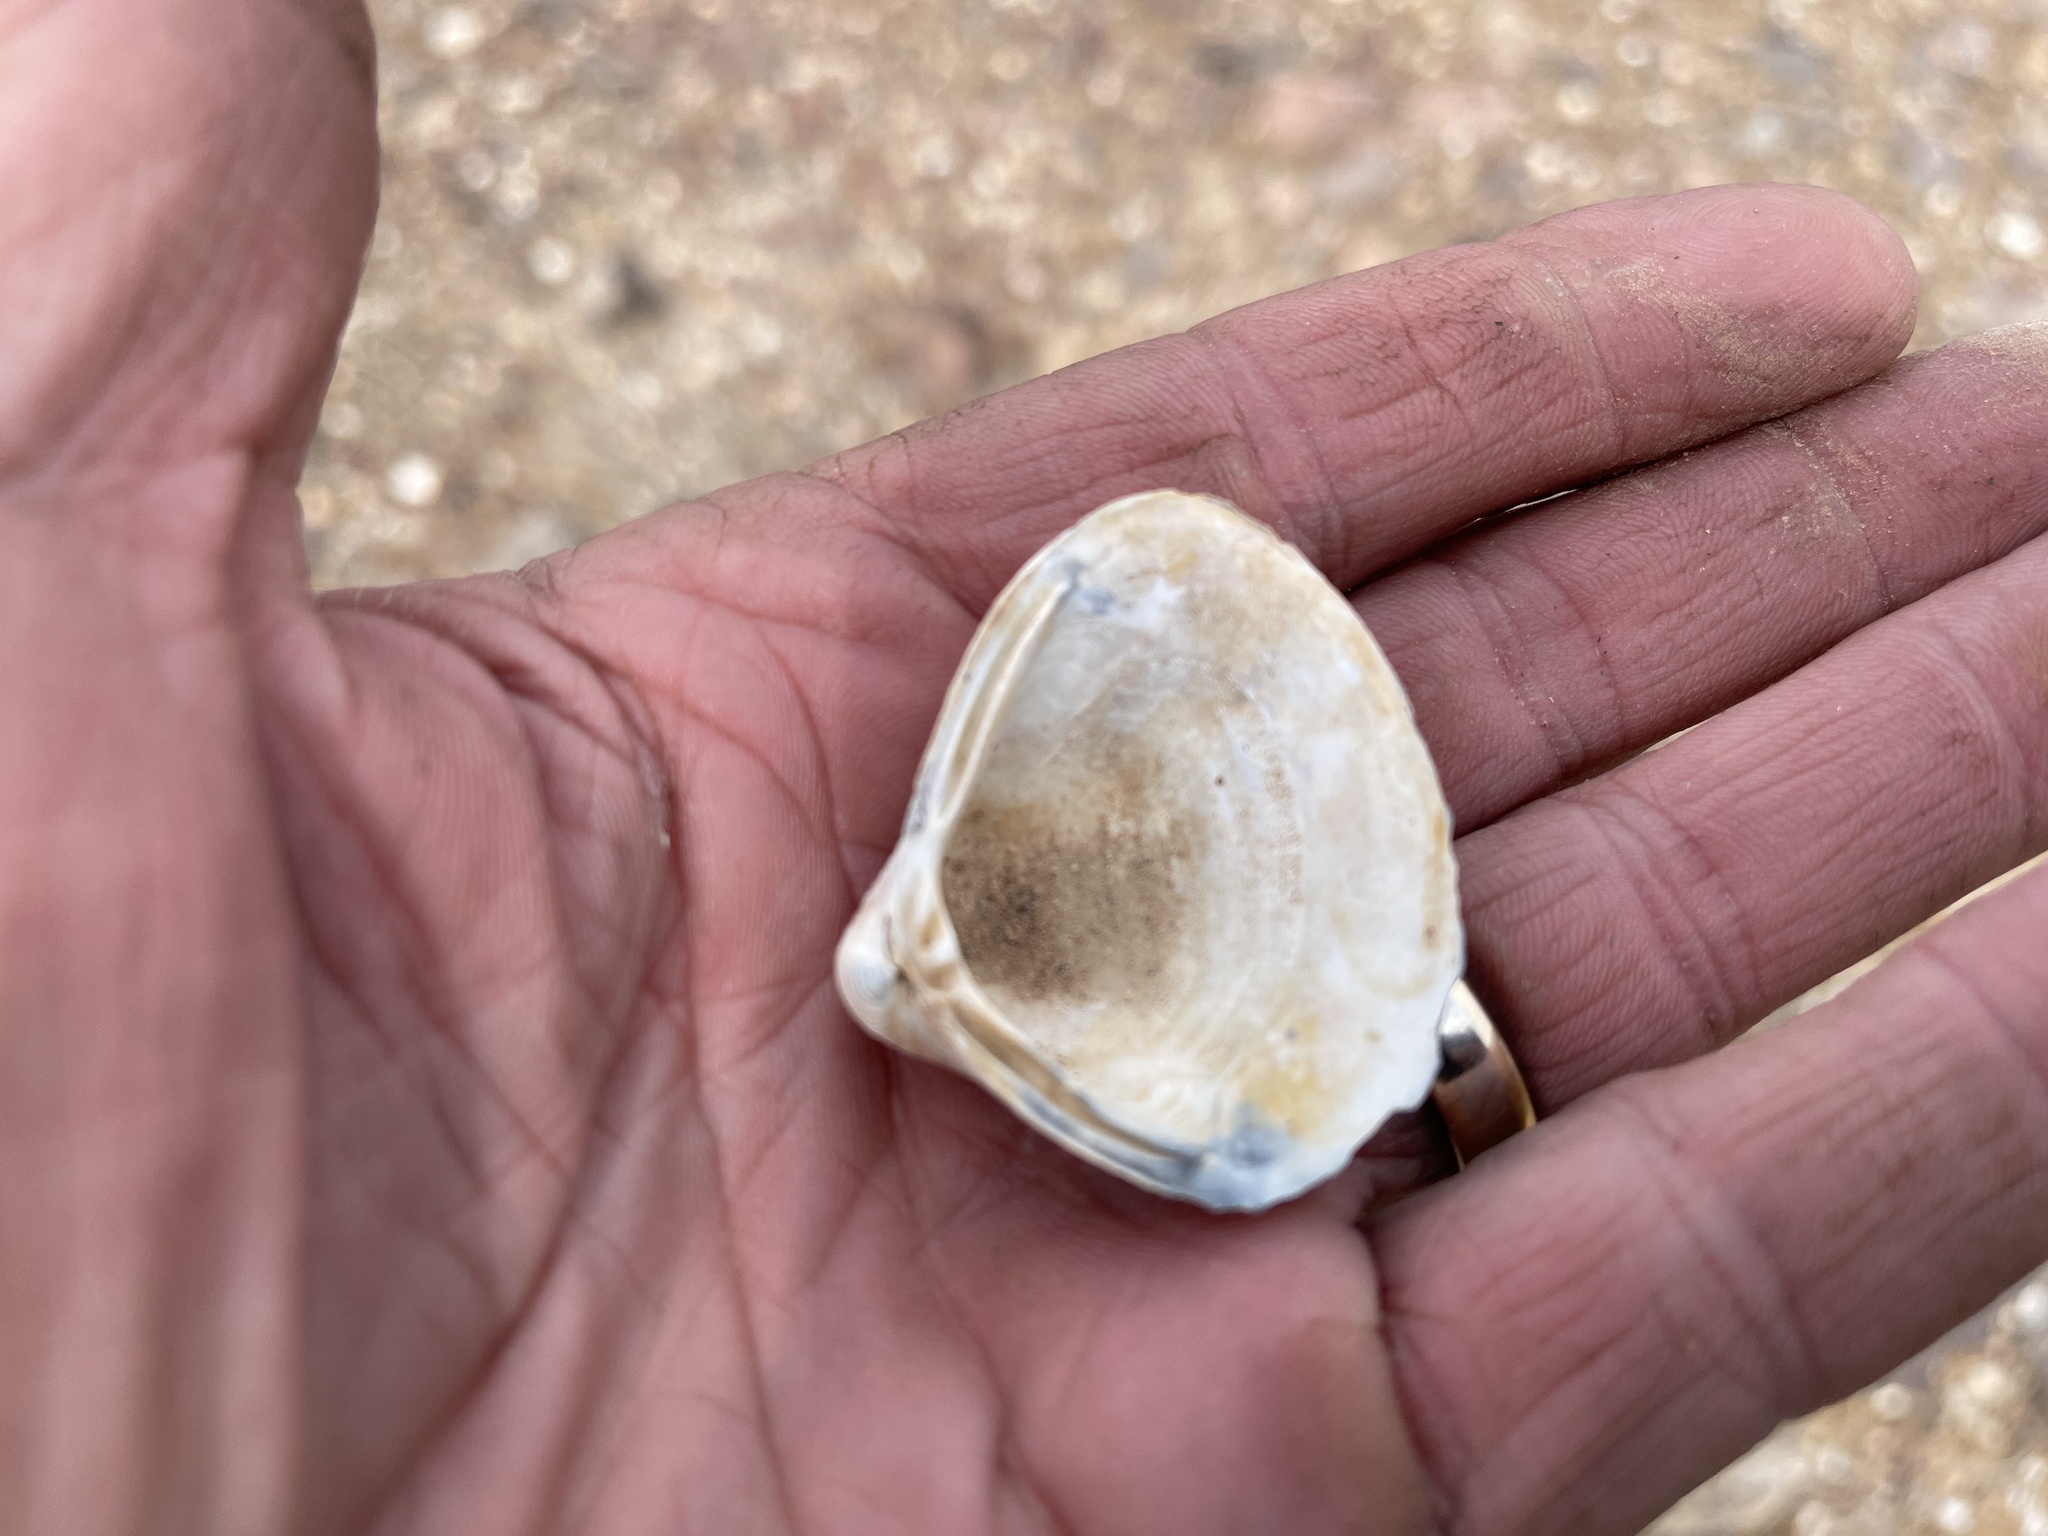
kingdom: Animalia
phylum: Mollusca
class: Bivalvia
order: Venerida
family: Cyrenidae
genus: Corbicula
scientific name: Corbicula fluminea
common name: Asian clam
